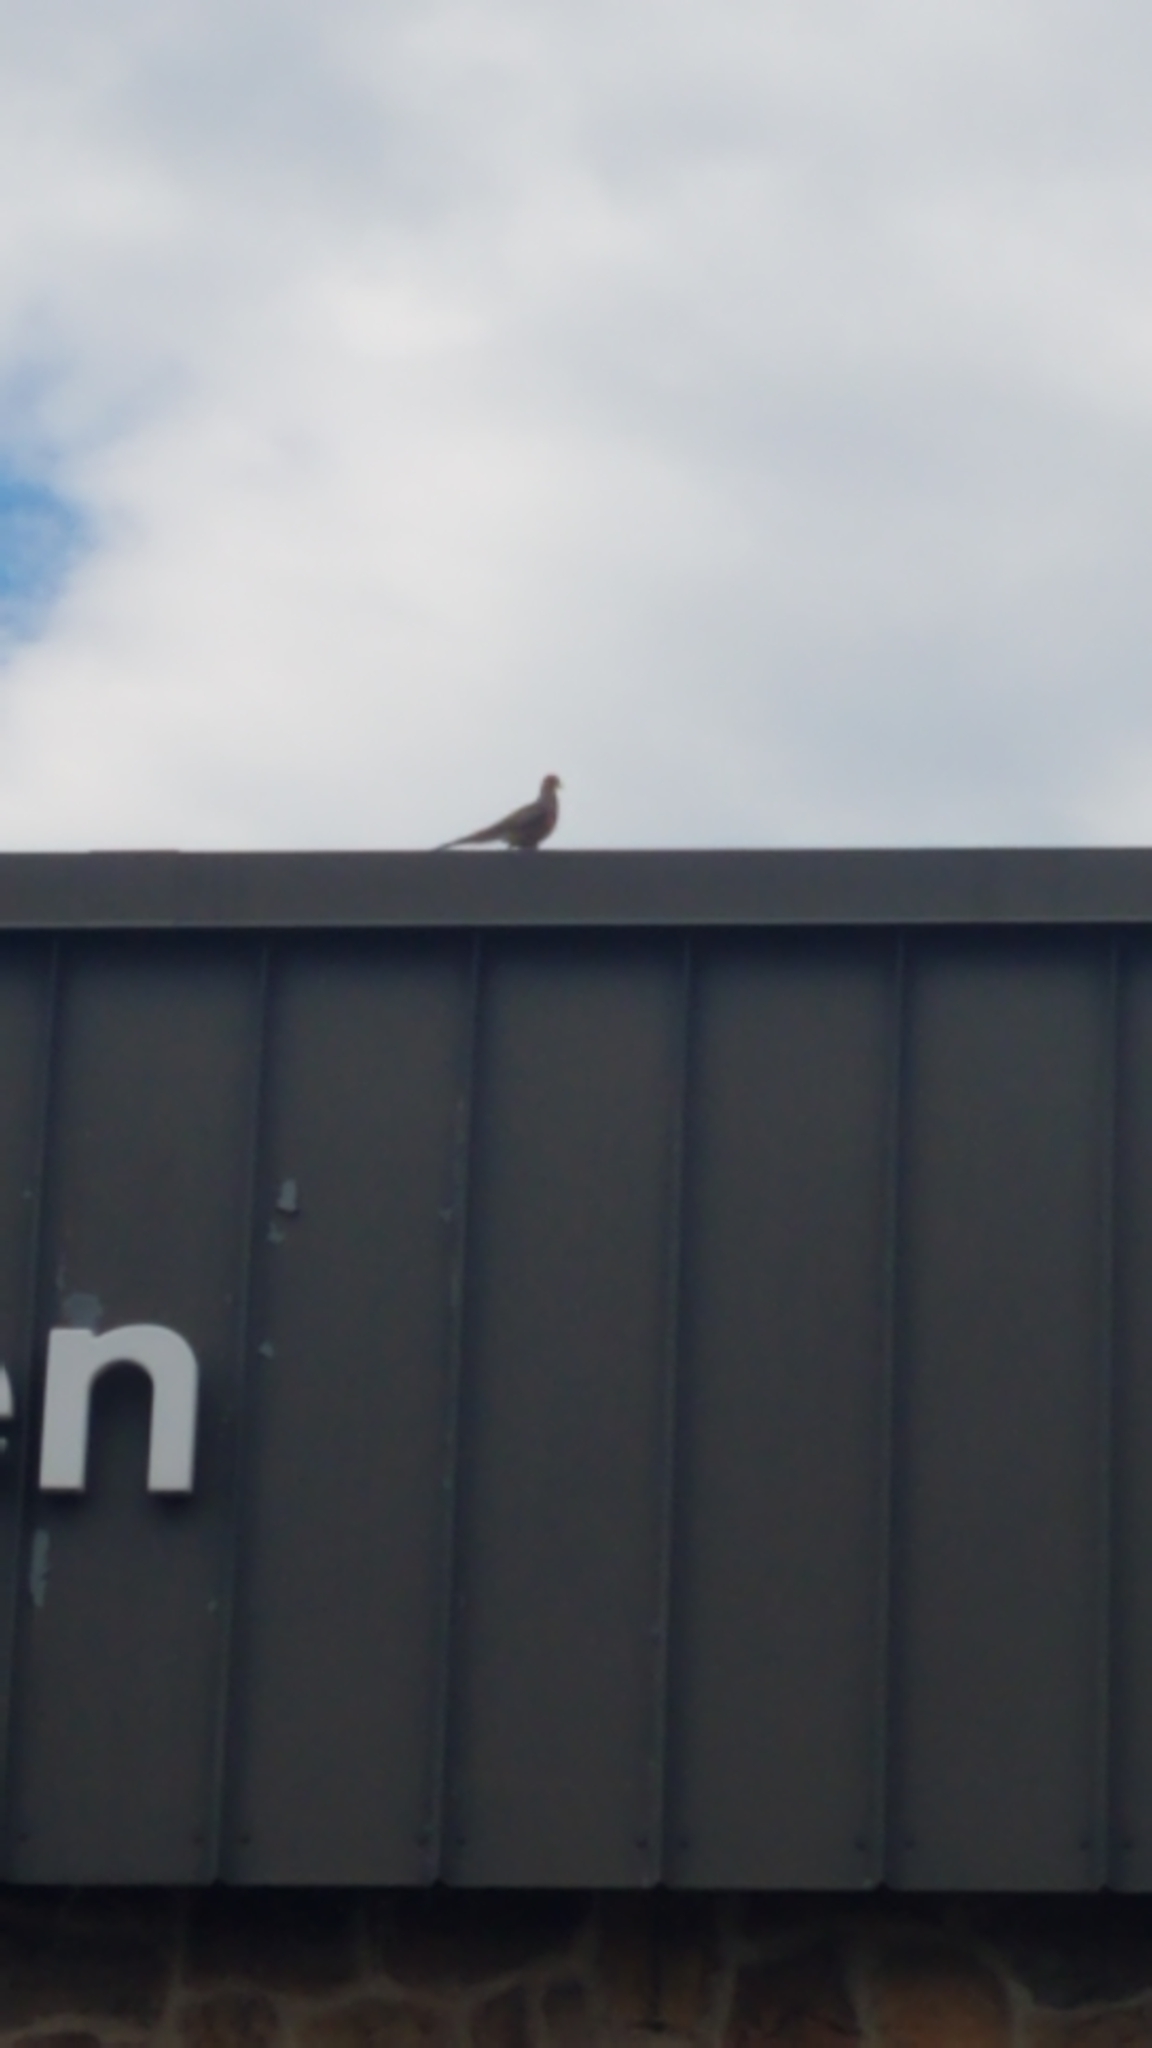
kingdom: Animalia
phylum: Chordata
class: Aves
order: Columbiformes
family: Columbidae
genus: Zenaida
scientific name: Zenaida macroura
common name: Mourning dove
